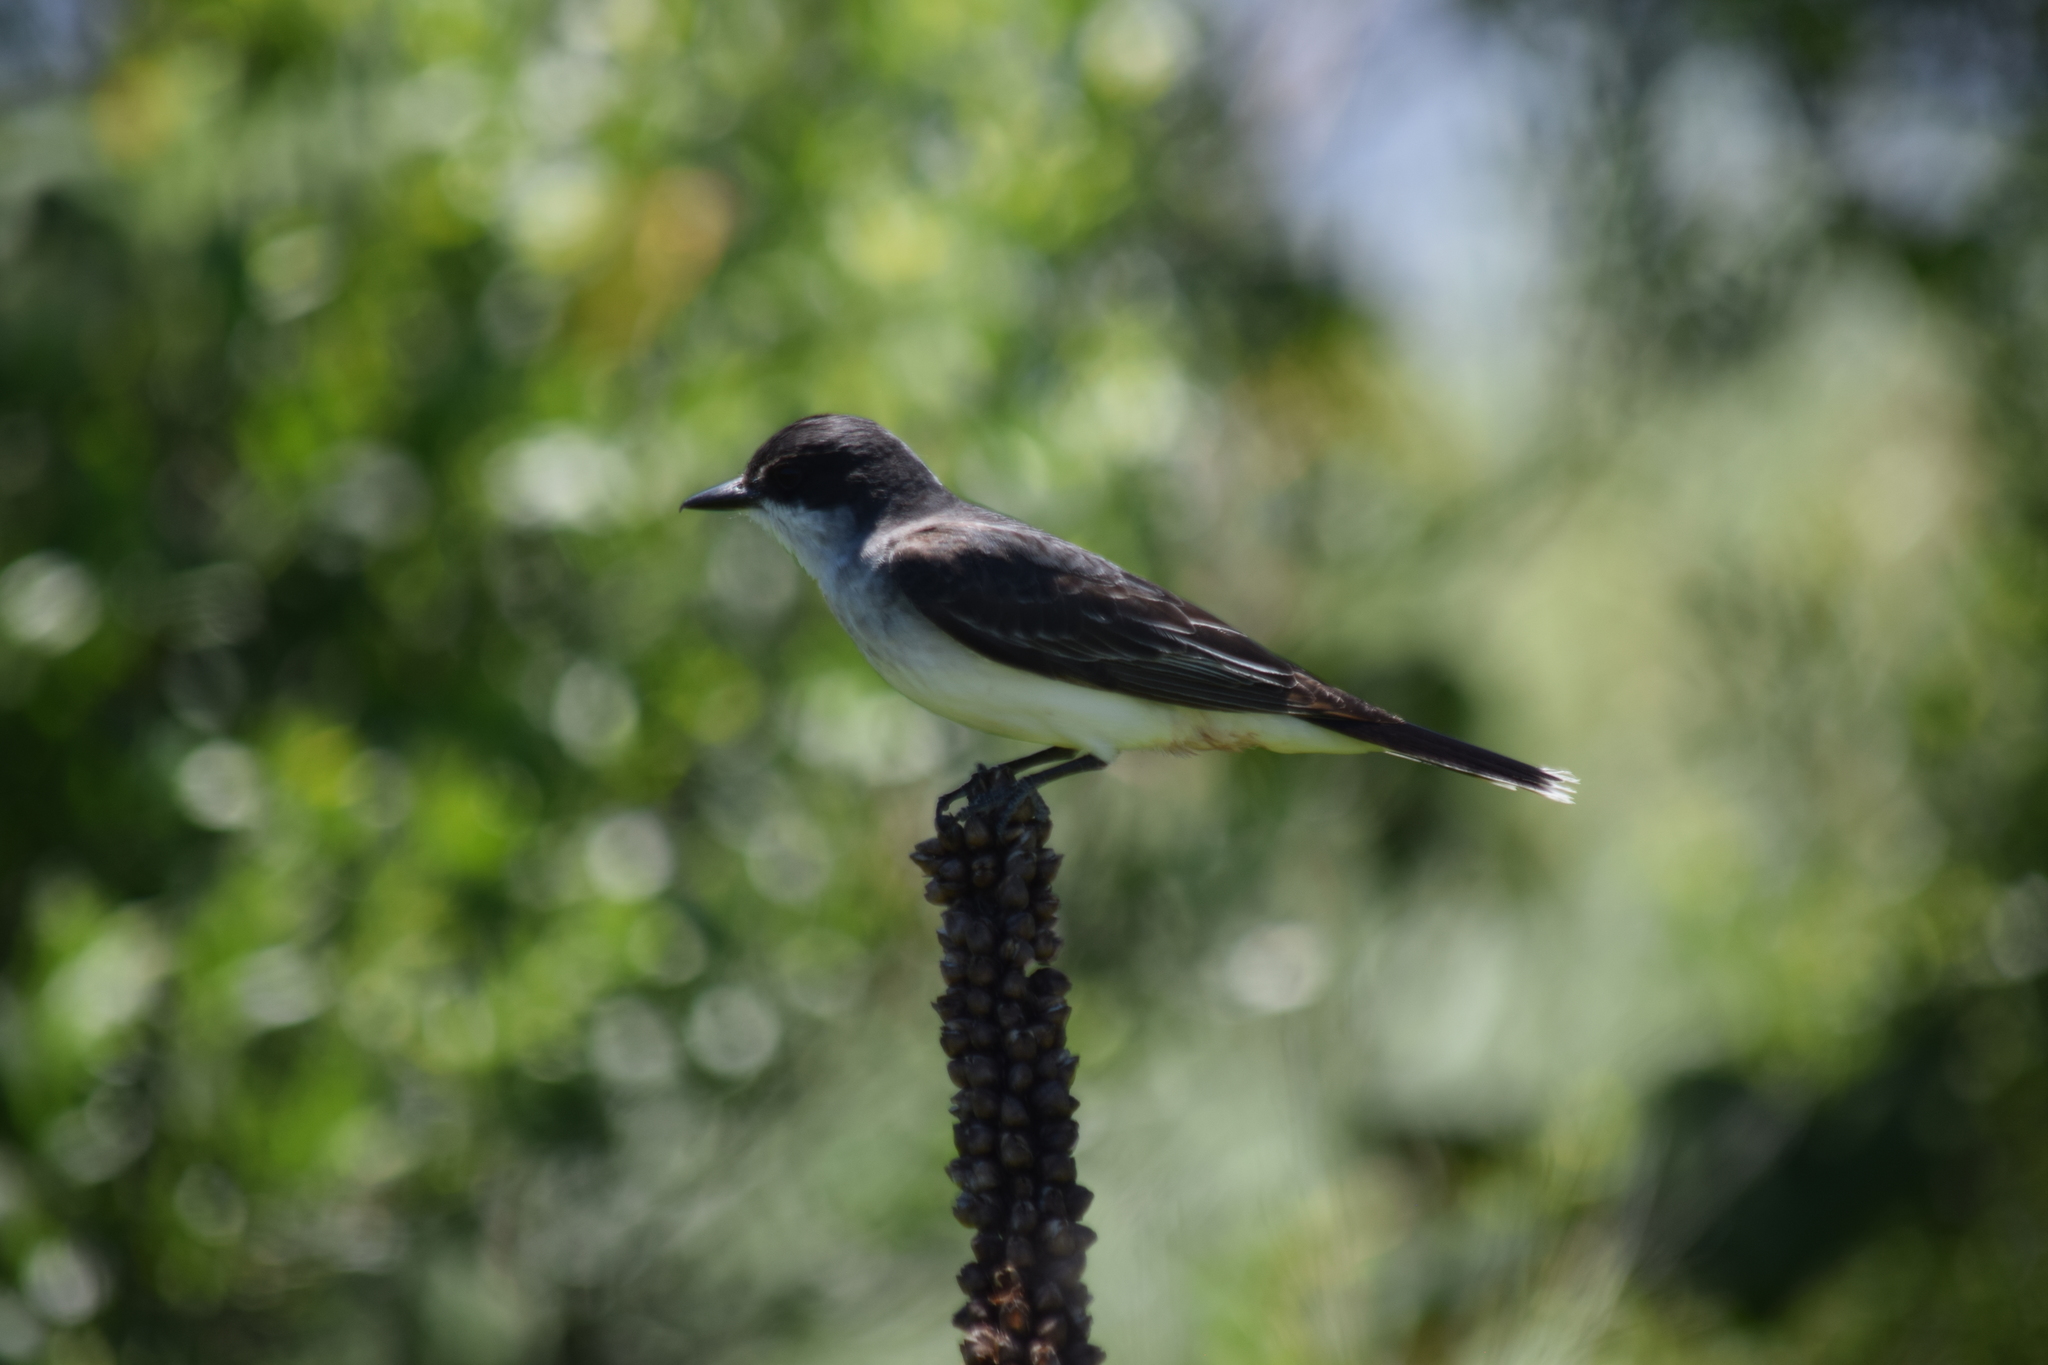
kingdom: Animalia
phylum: Chordata
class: Aves
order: Passeriformes
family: Tyrannidae
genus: Tyrannus
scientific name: Tyrannus tyrannus
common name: Eastern kingbird
